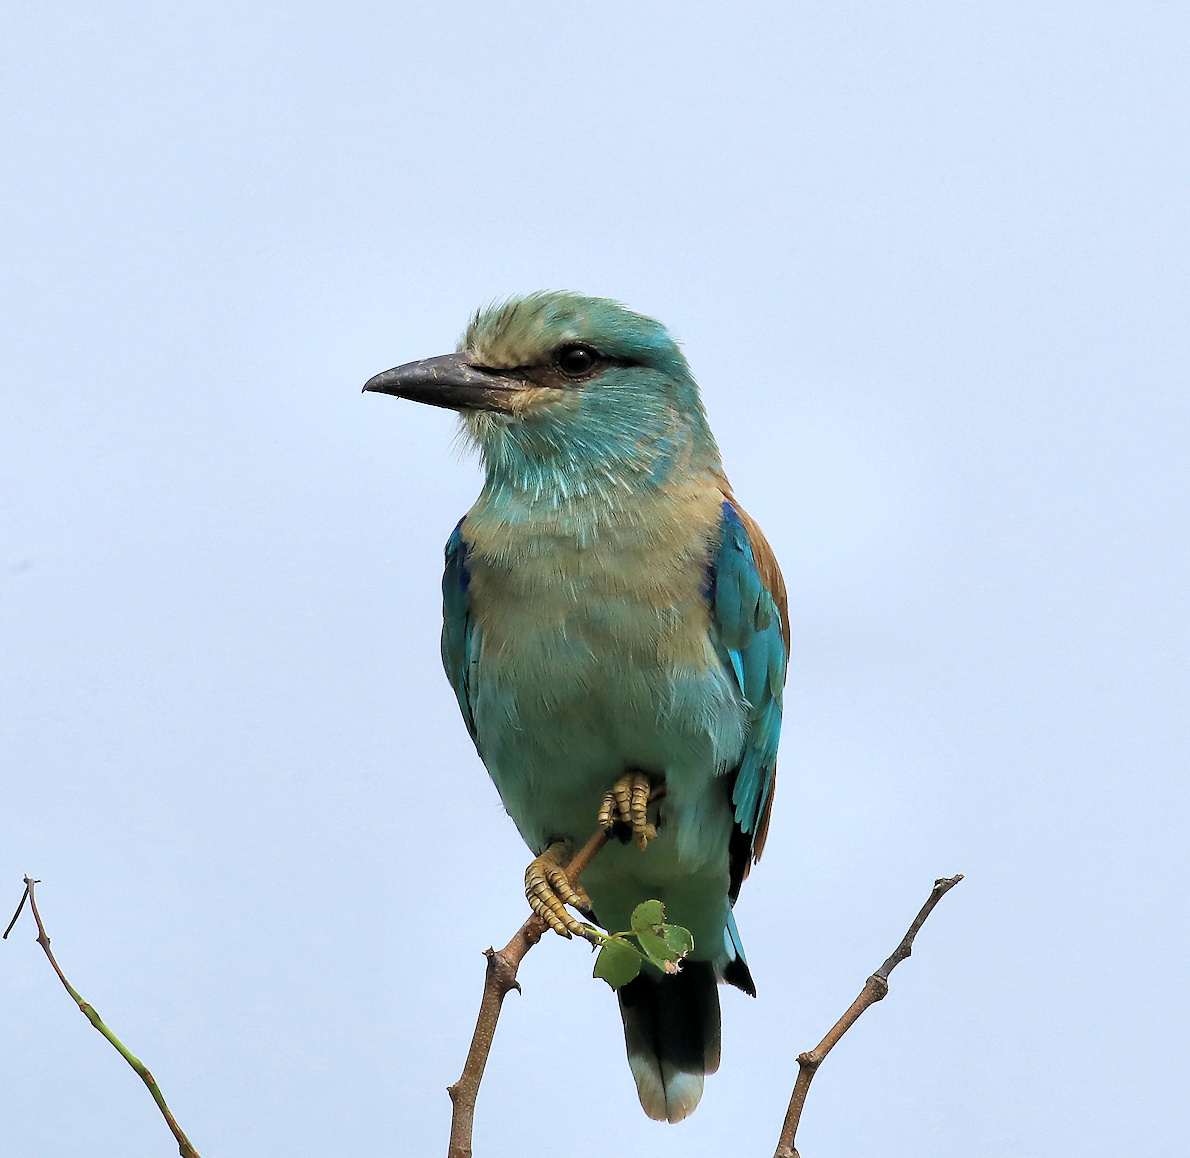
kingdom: Animalia
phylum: Chordata
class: Aves
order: Coraciiformes
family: Coraciidae
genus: Coracias
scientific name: Coracias garrulus
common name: European roller
